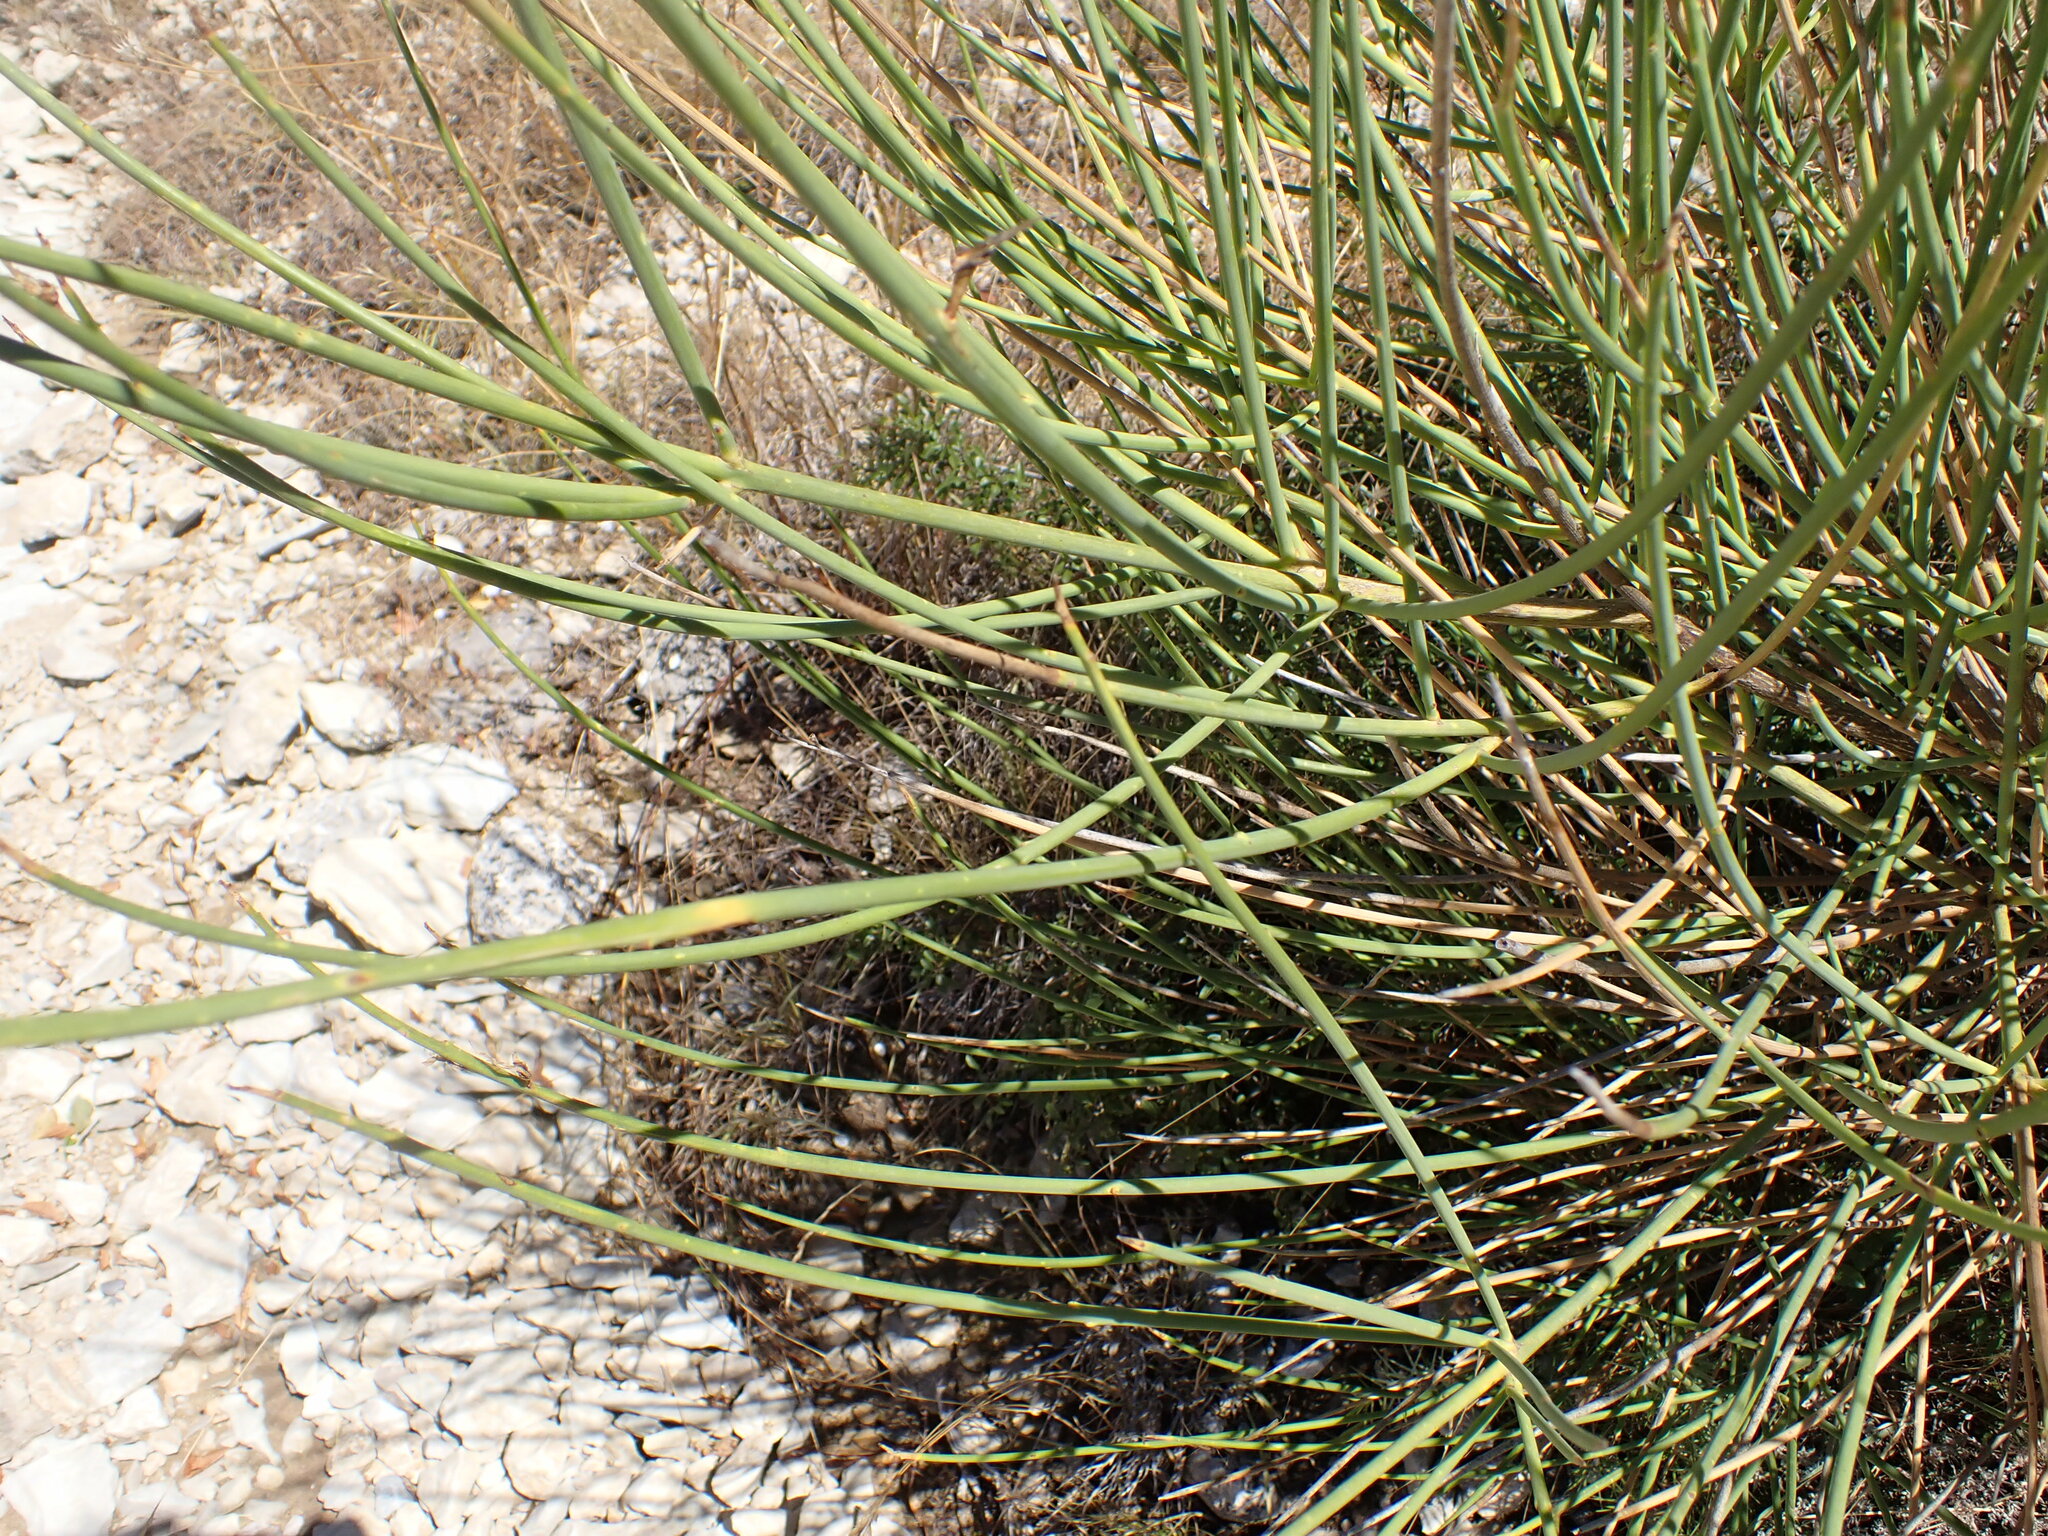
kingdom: Plantae
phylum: Tracheophyta
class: Magnoliopsida
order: Fabales
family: Fabaceae
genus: Spartium
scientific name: Spartium junceum
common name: Spanish broom
